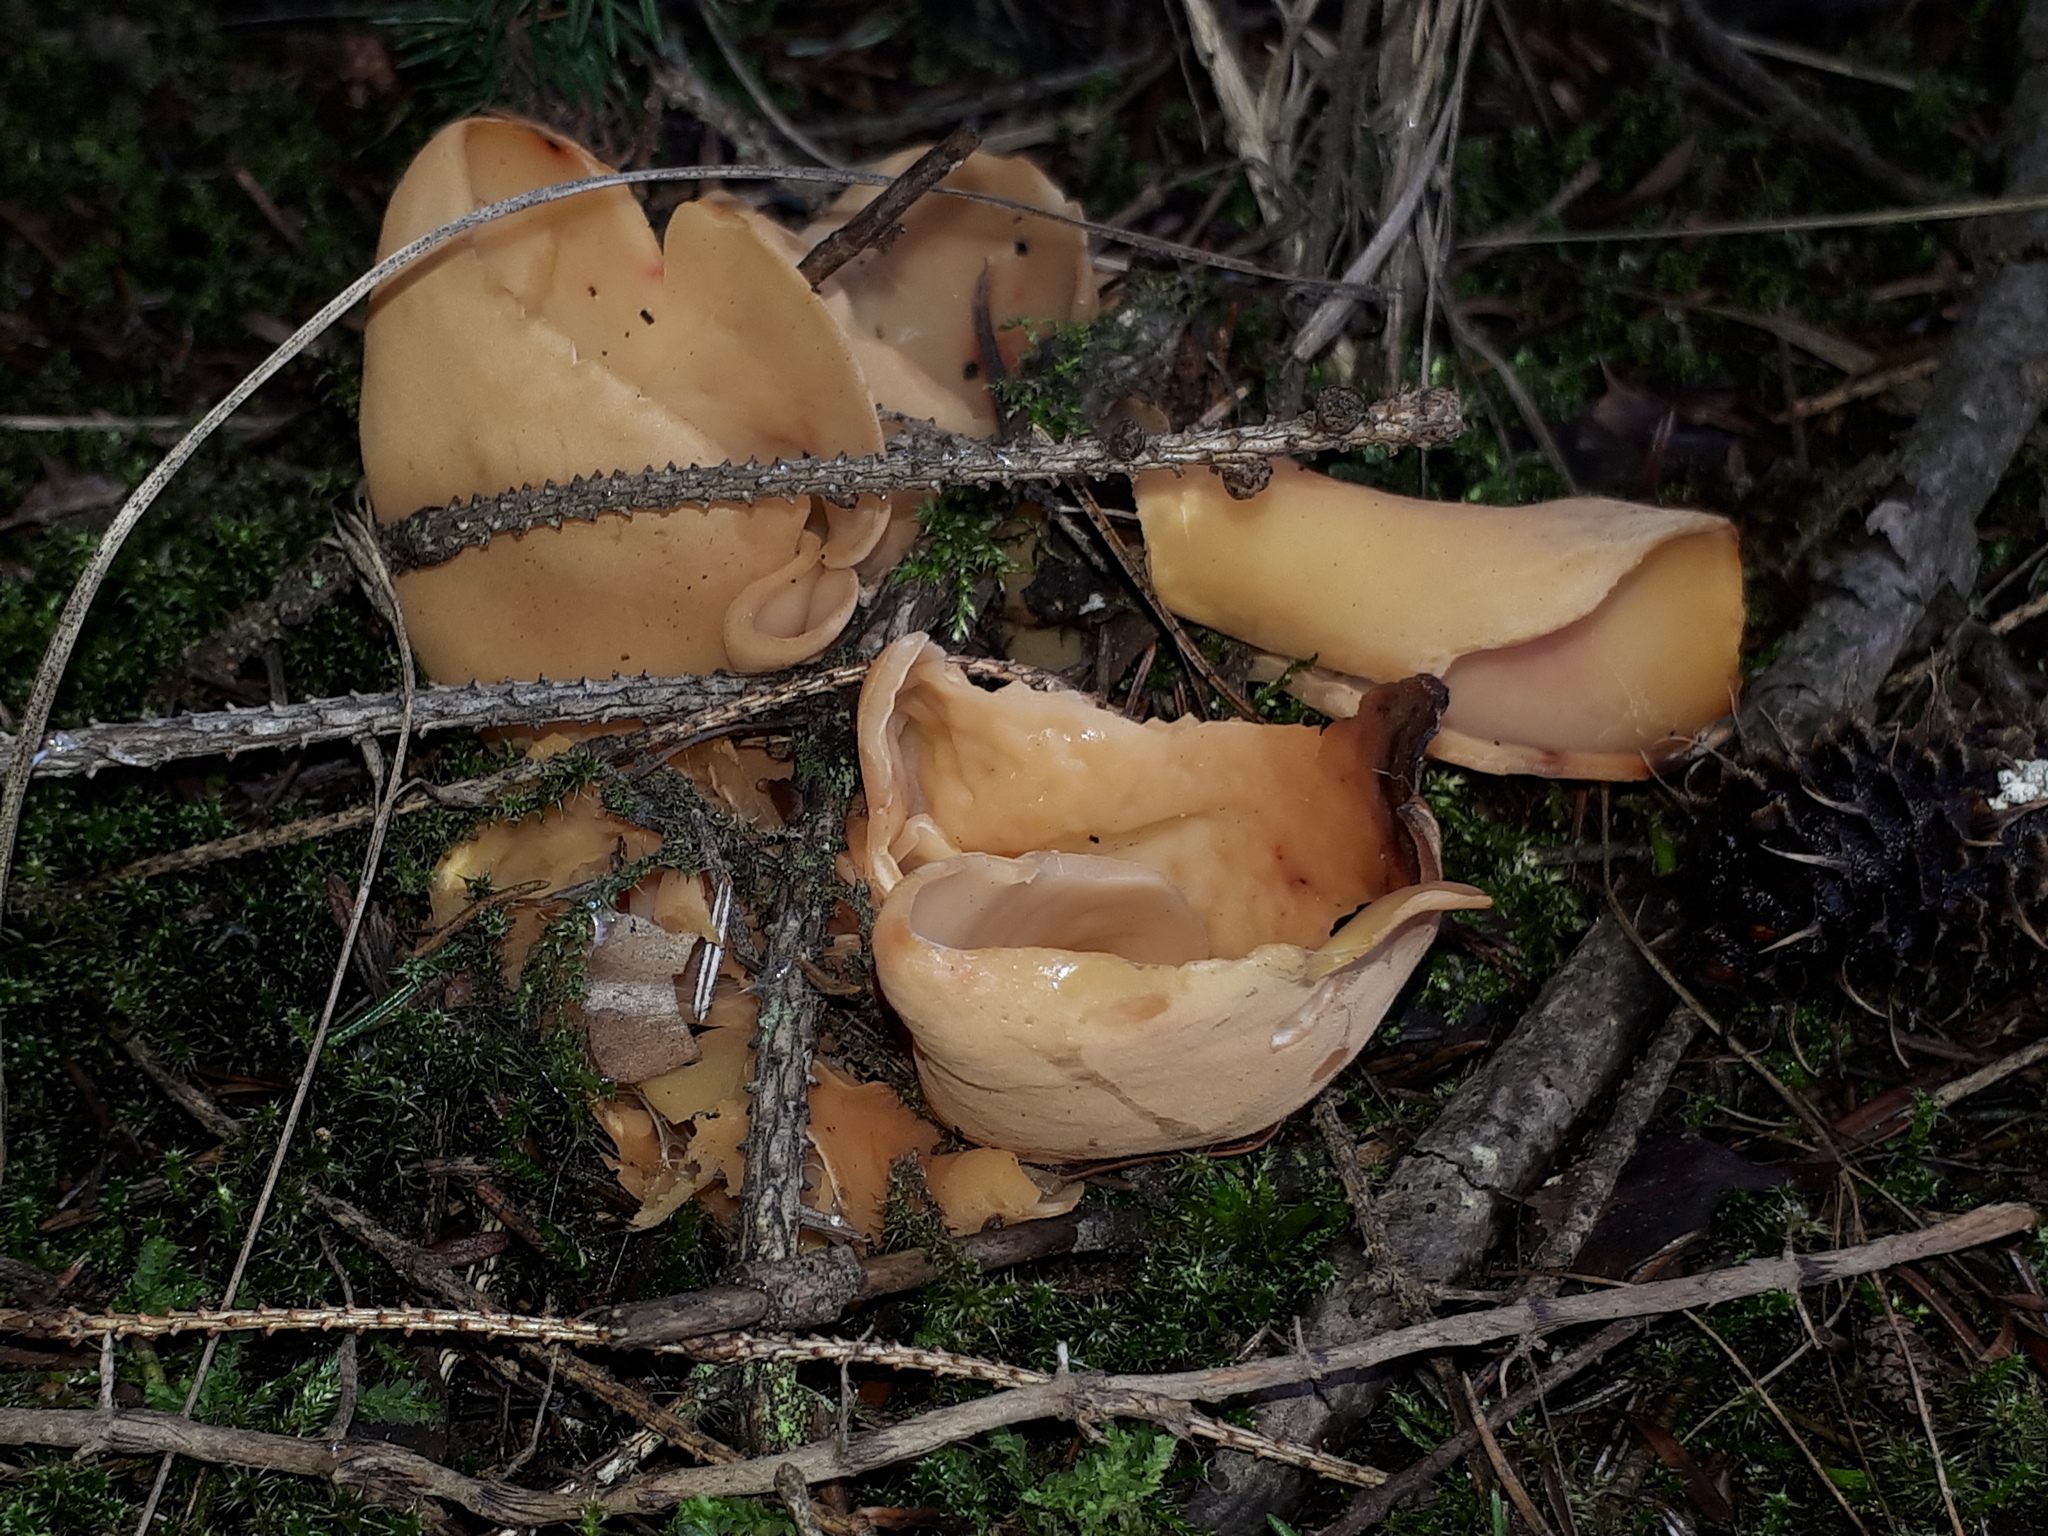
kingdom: Fungi
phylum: Ascomycota
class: Pezizomycetes
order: Pezizales
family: Otideaceae
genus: Otidea
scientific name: Otidea onotica
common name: Hare's ear
